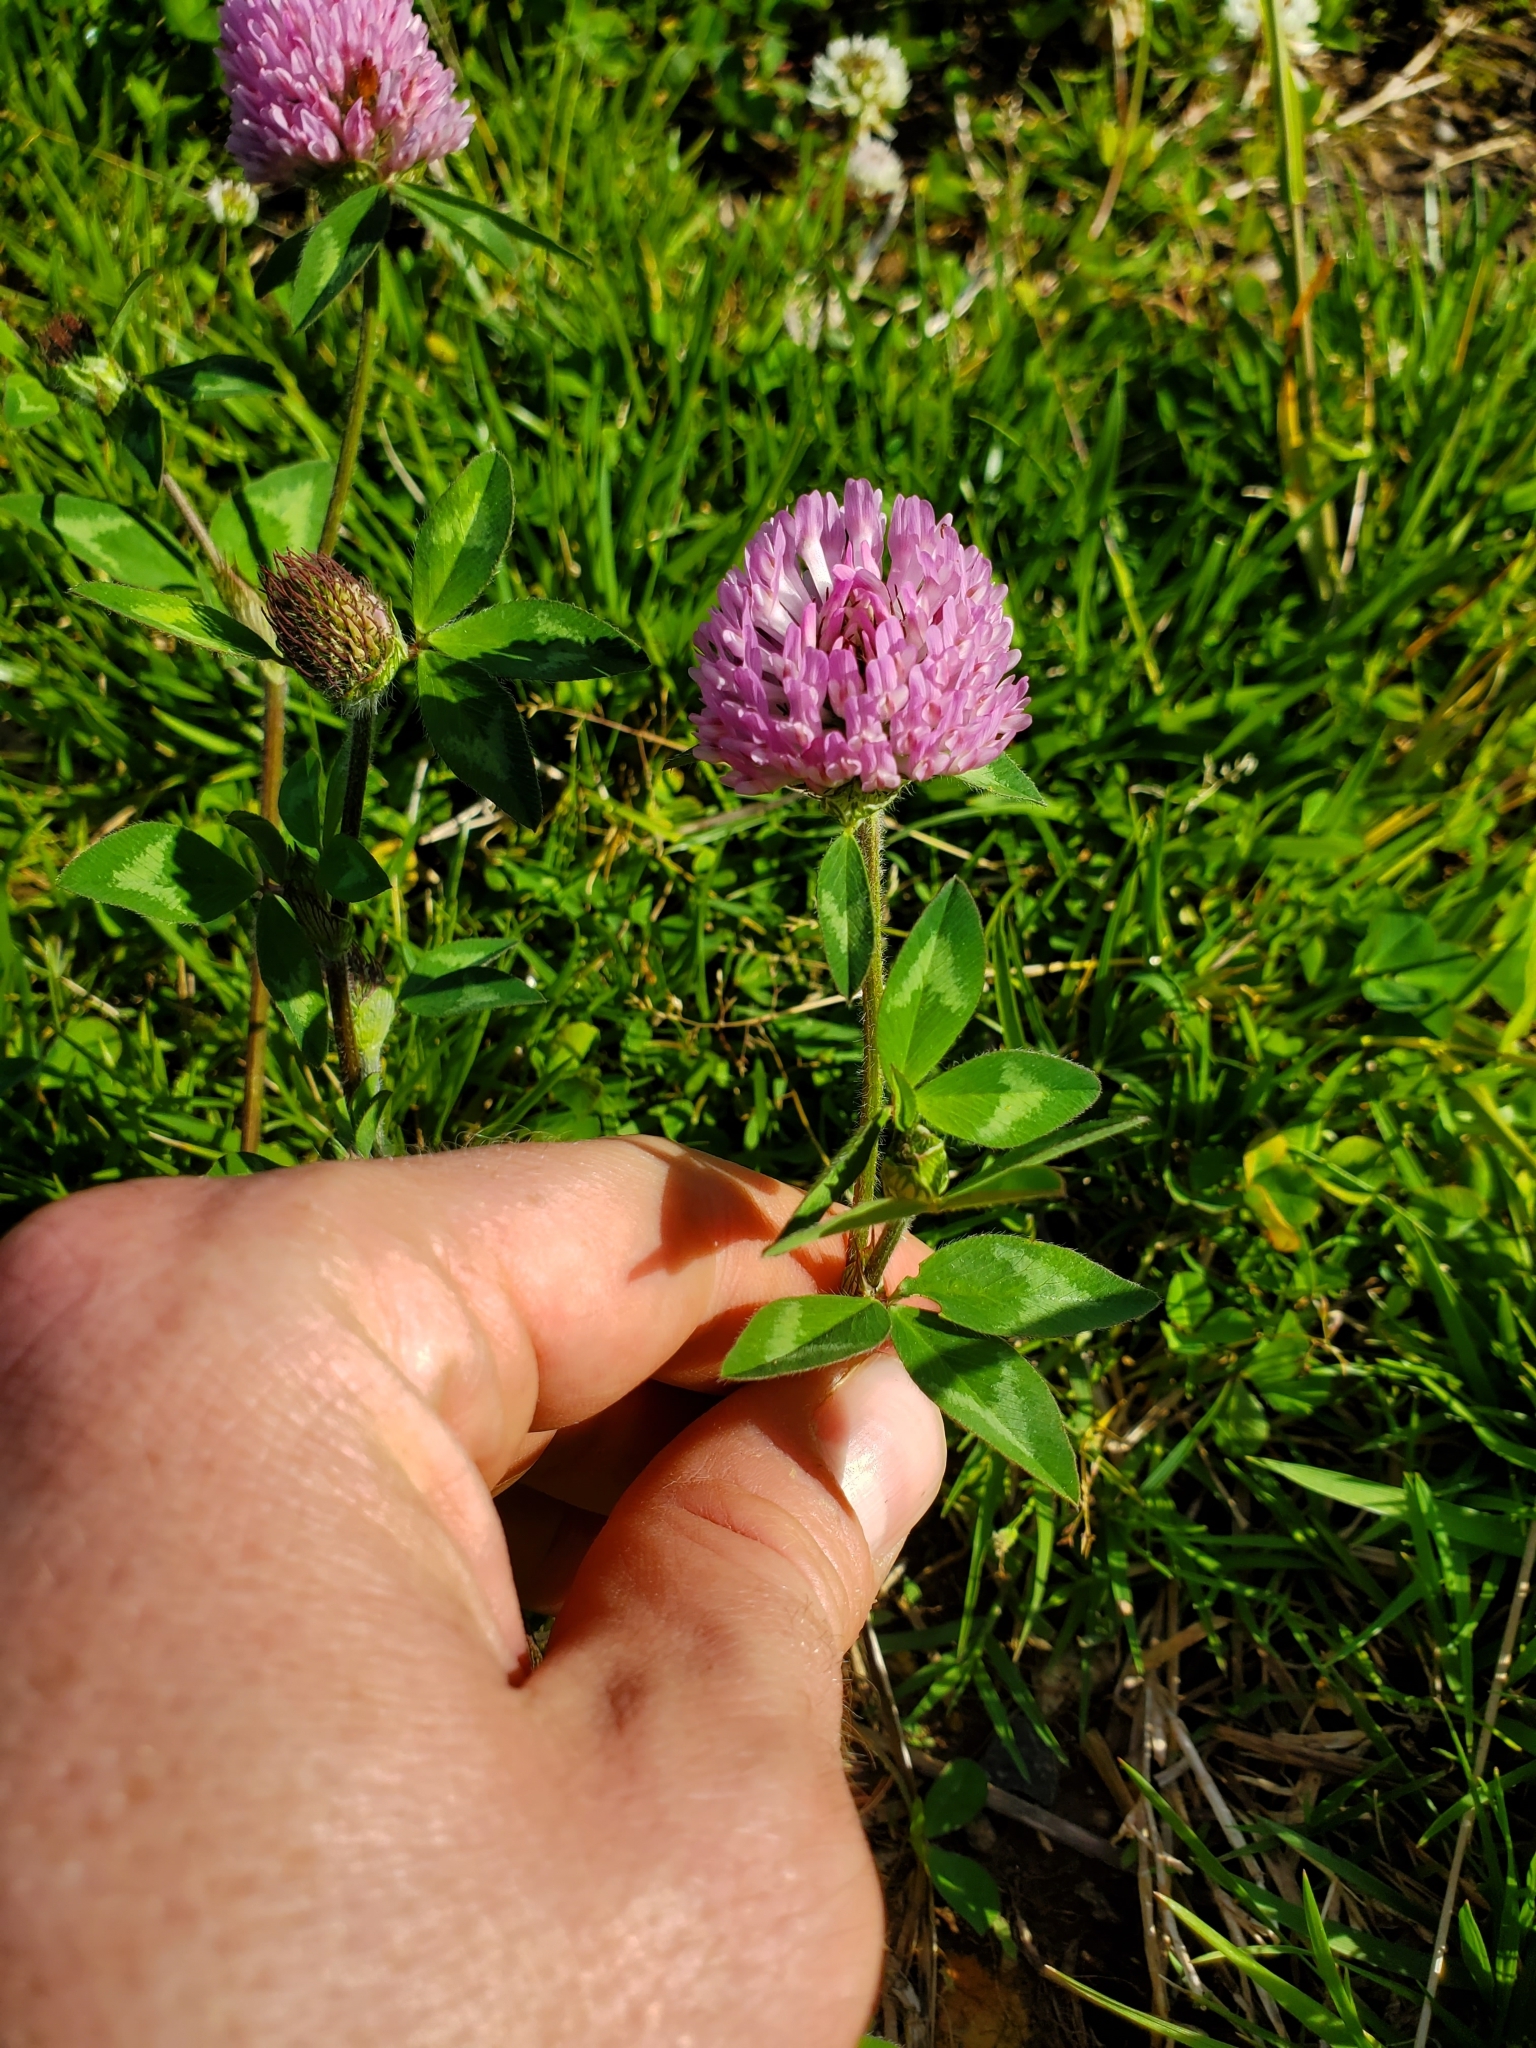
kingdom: Plantae
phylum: Tracheophyta
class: Magnoliopsida
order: Fabales
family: Fabaceae
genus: Trifolium
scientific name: Trifolium pratense
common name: Red clover
